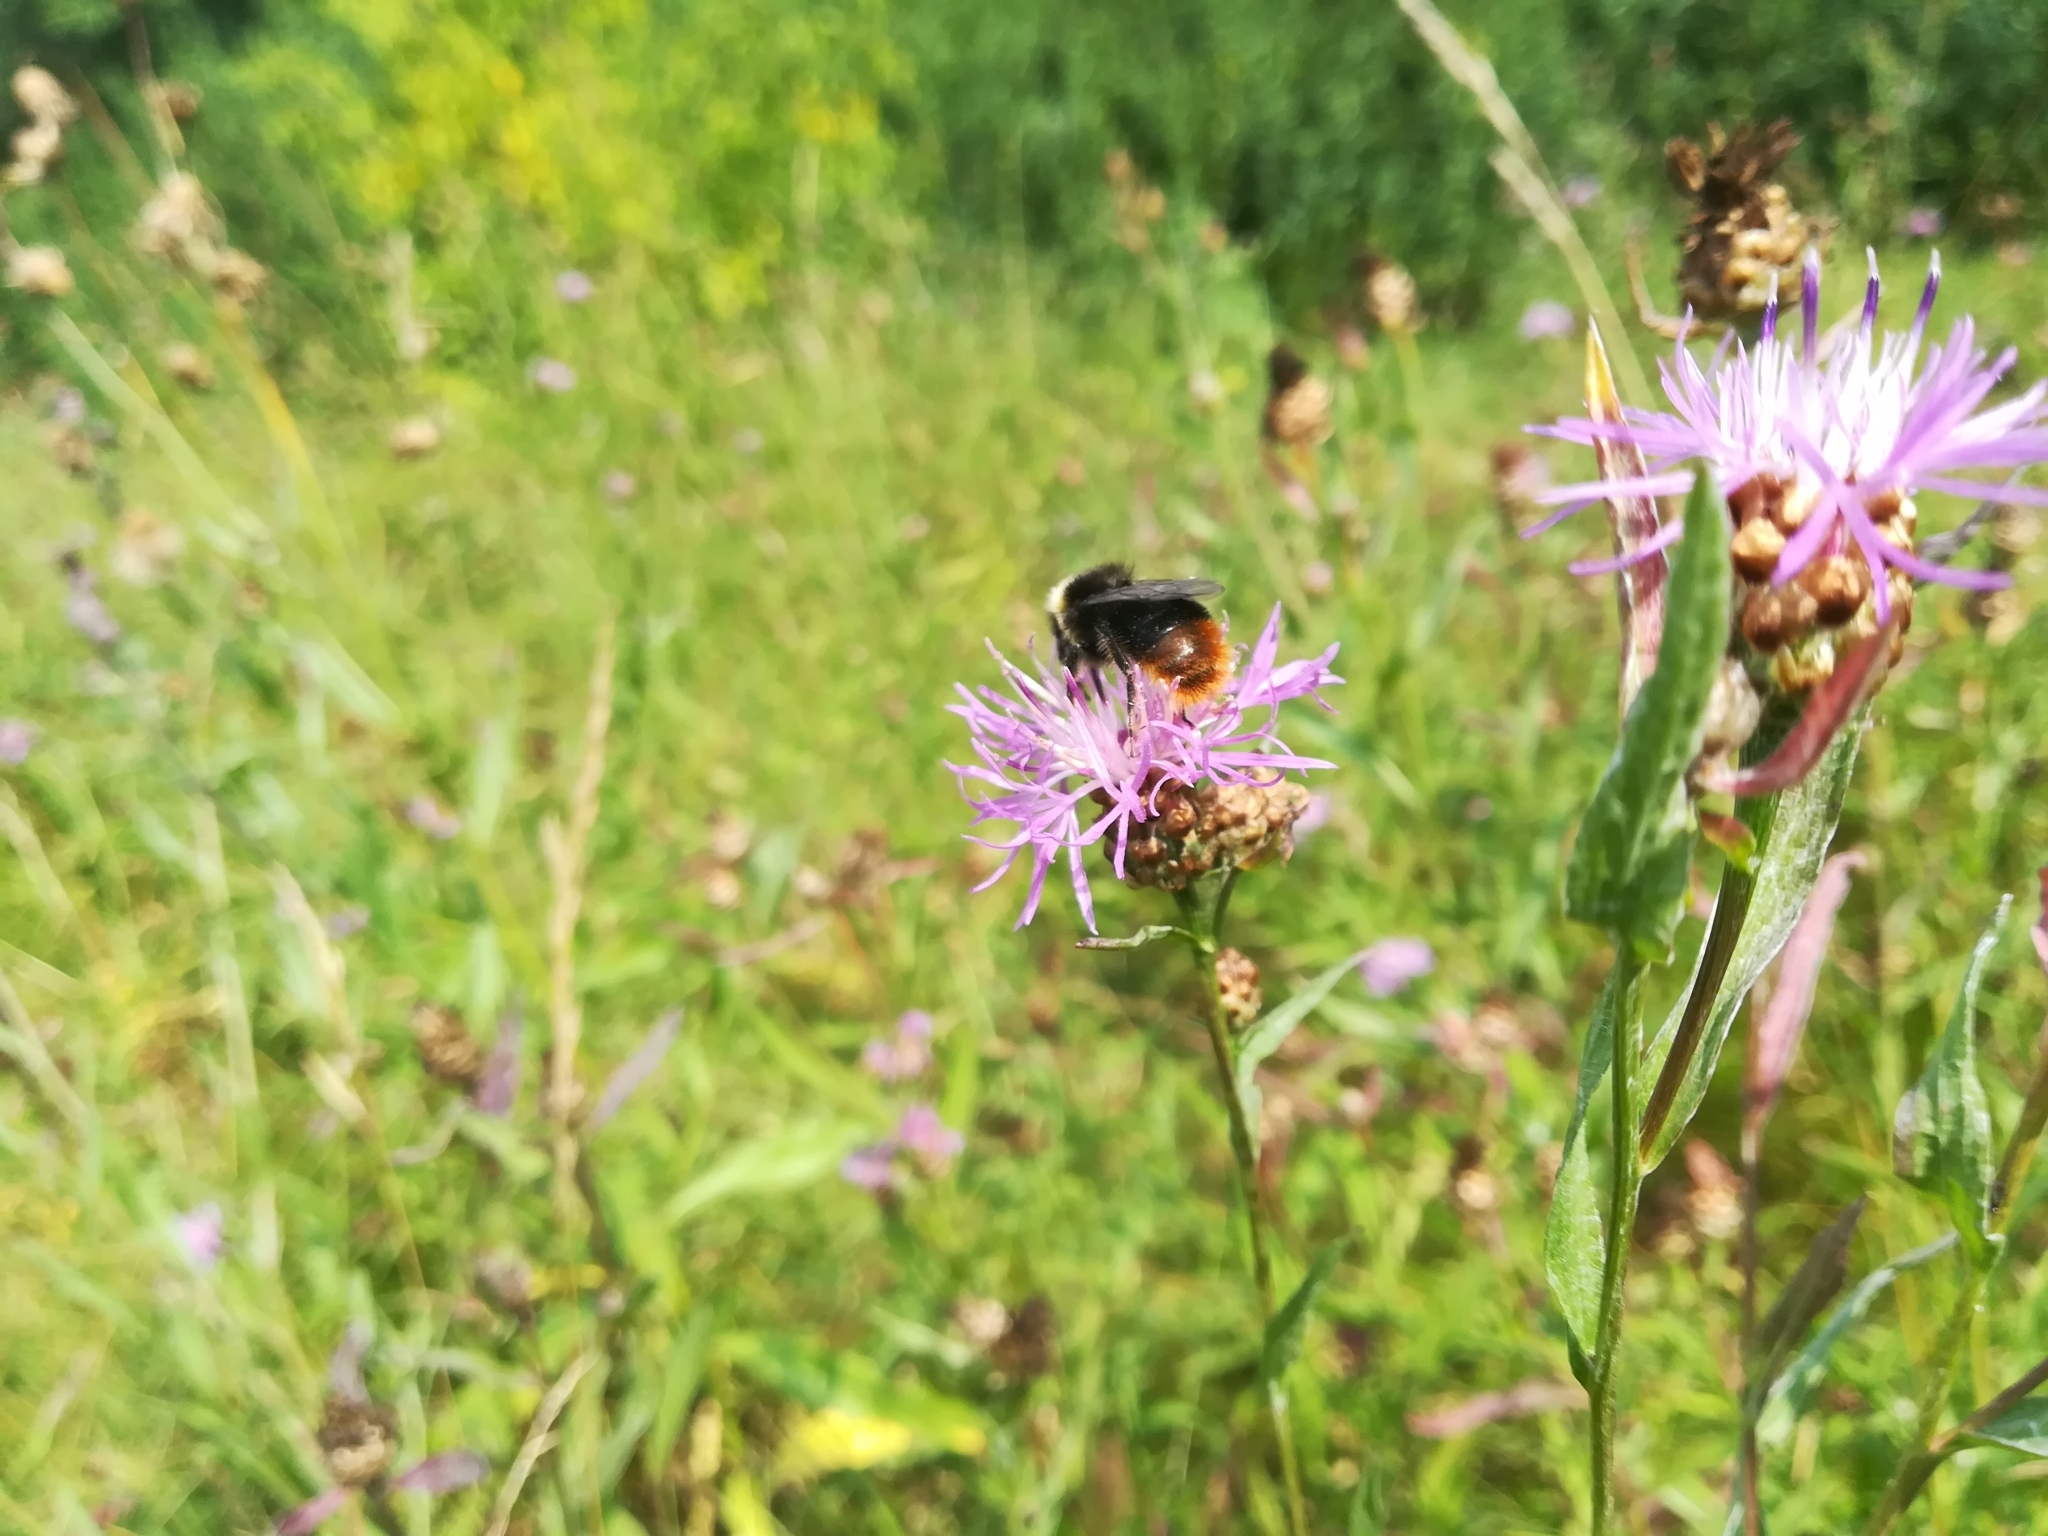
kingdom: Plantae
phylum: Tracheophyta
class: Magnoliopsida
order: Asterales
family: Asteraceae
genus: Centaurea
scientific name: Centaurea jacea
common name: Brown knapweed
